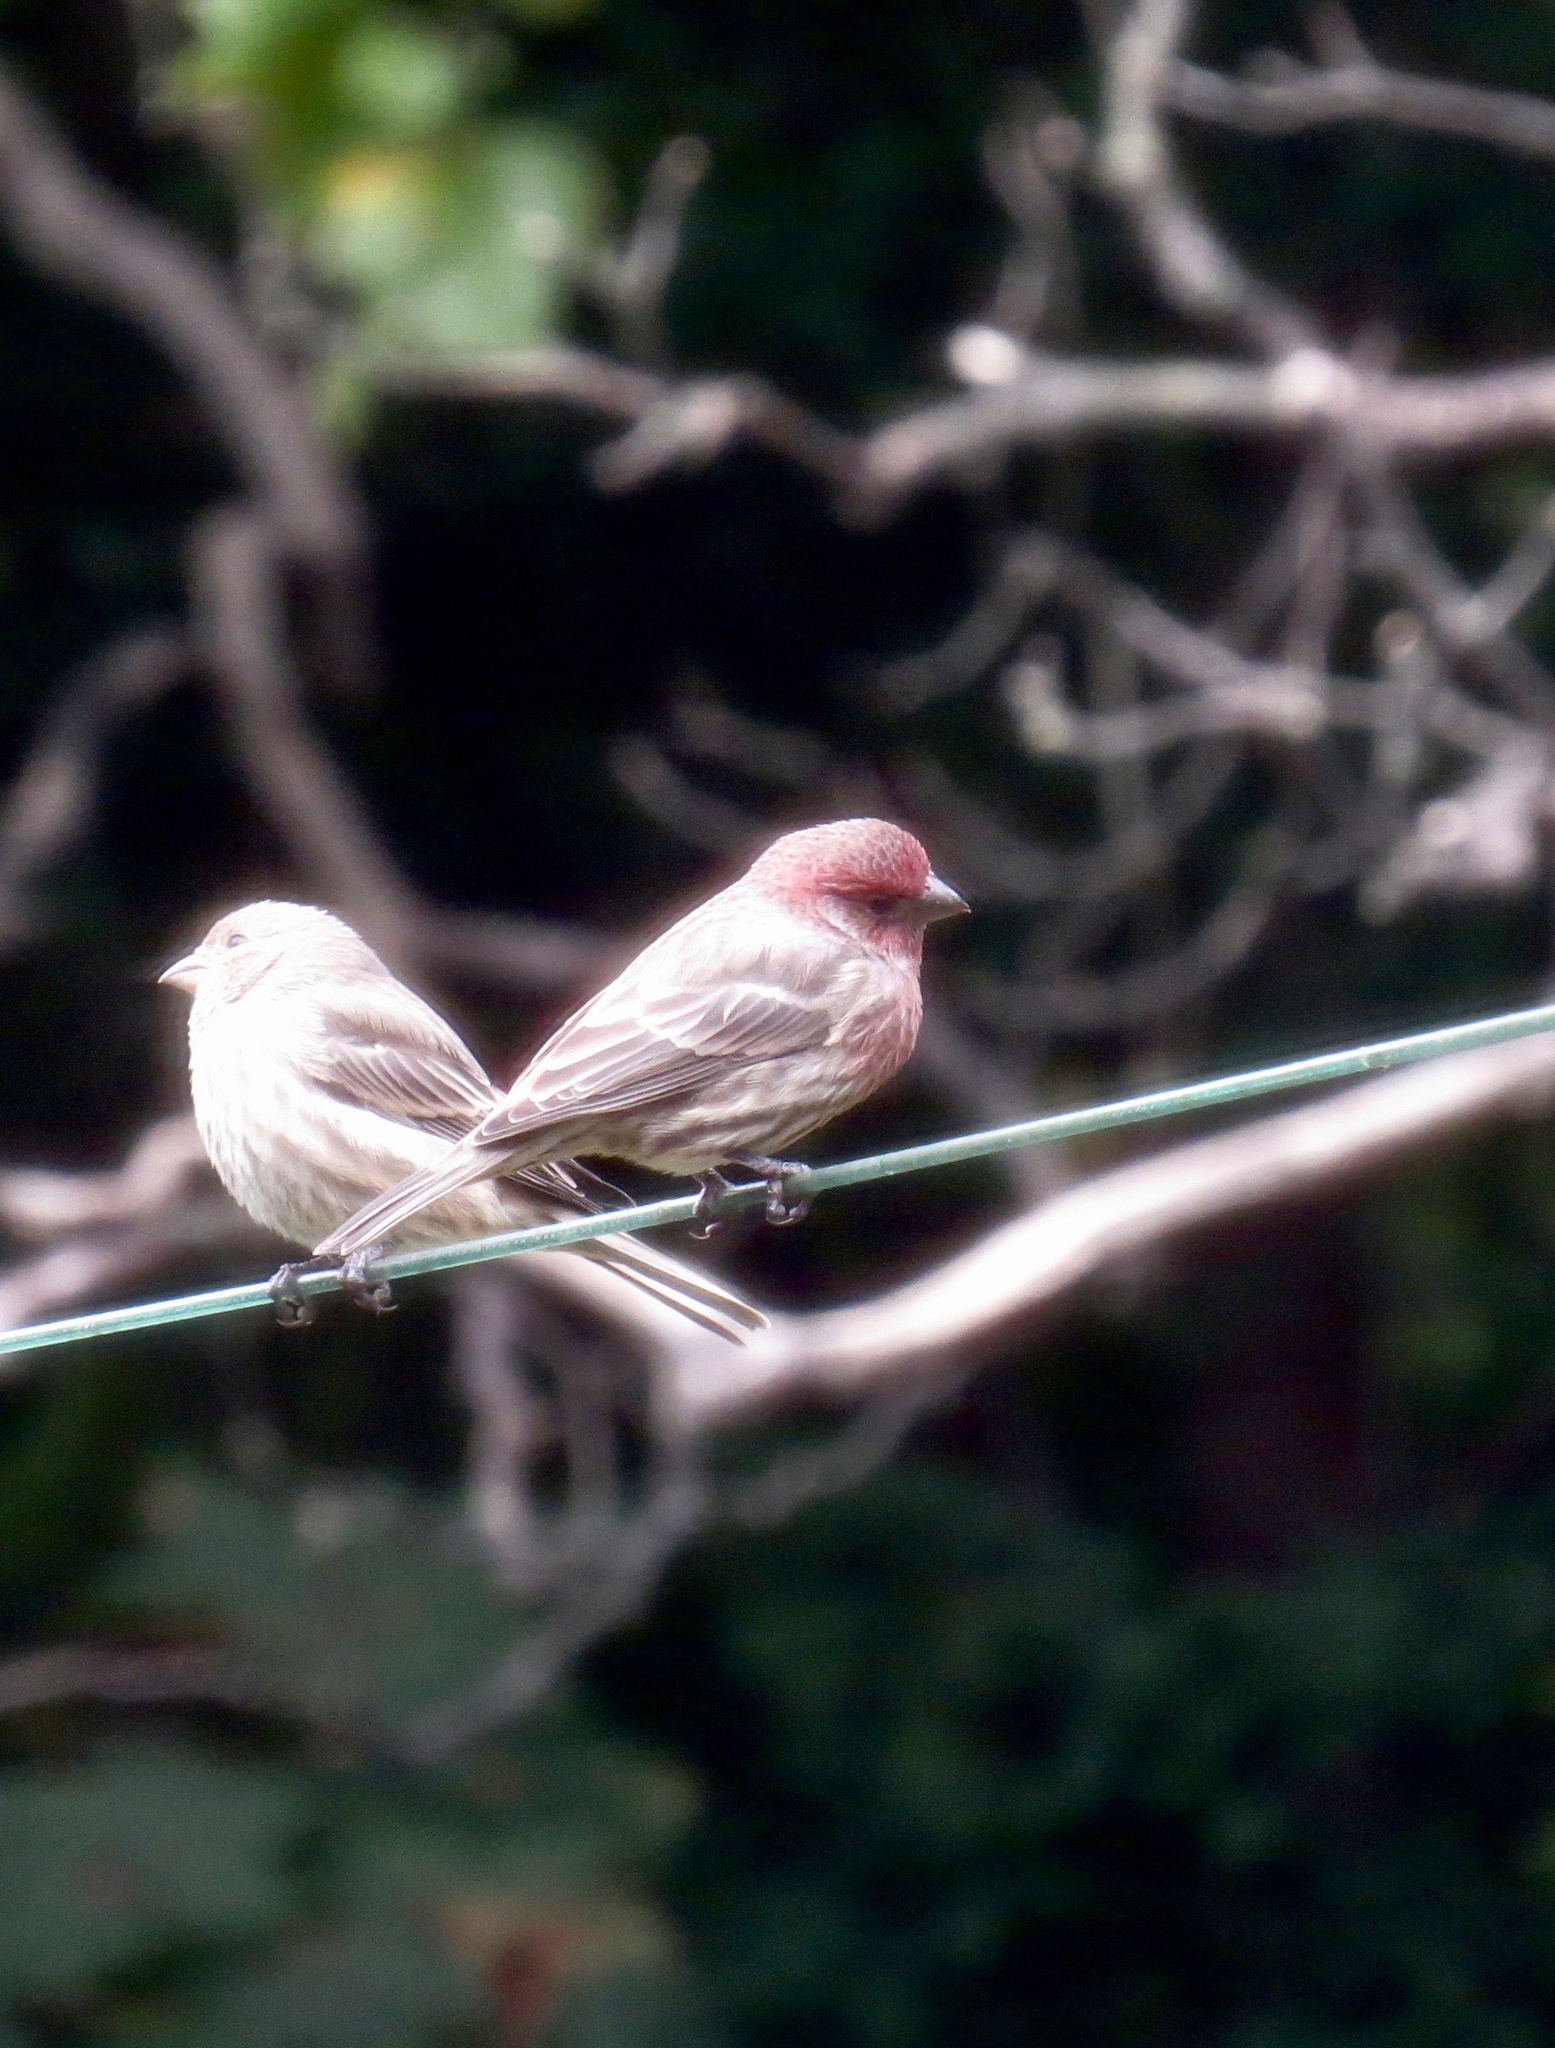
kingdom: Animalia
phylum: Chordata
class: Aves
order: Passeriformes
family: Fringillidae
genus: Haemorhous
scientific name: Haemorhous mexicanus
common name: House finch
